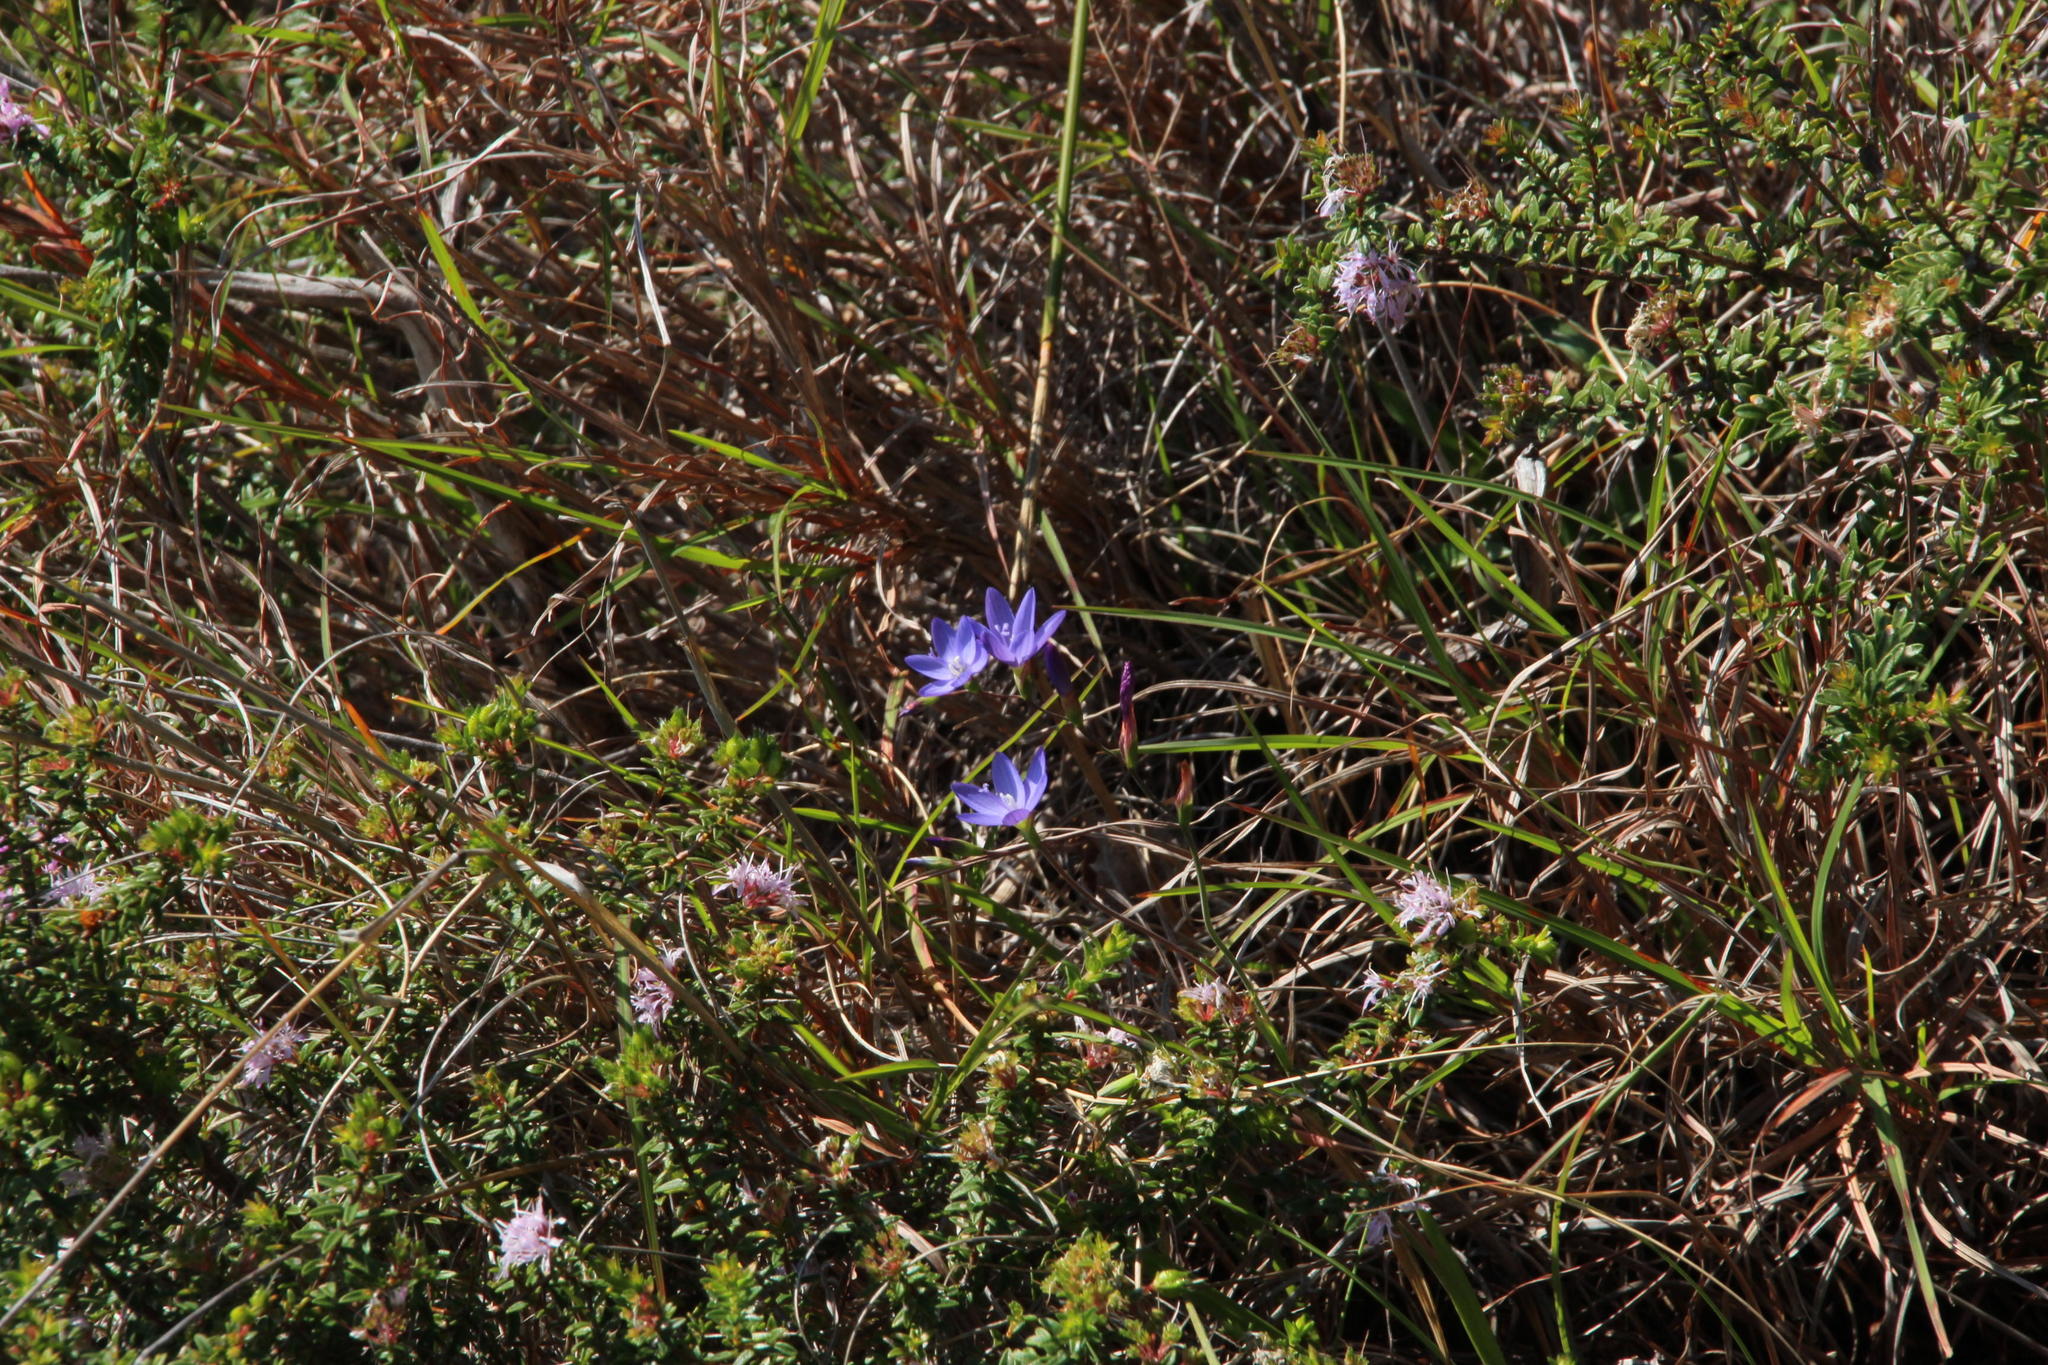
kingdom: Plantae
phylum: Tracheophyta
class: Liliopsida
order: Asparagales
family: Iridaceae
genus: Geissorhiza
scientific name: Geissorhiza aspera
